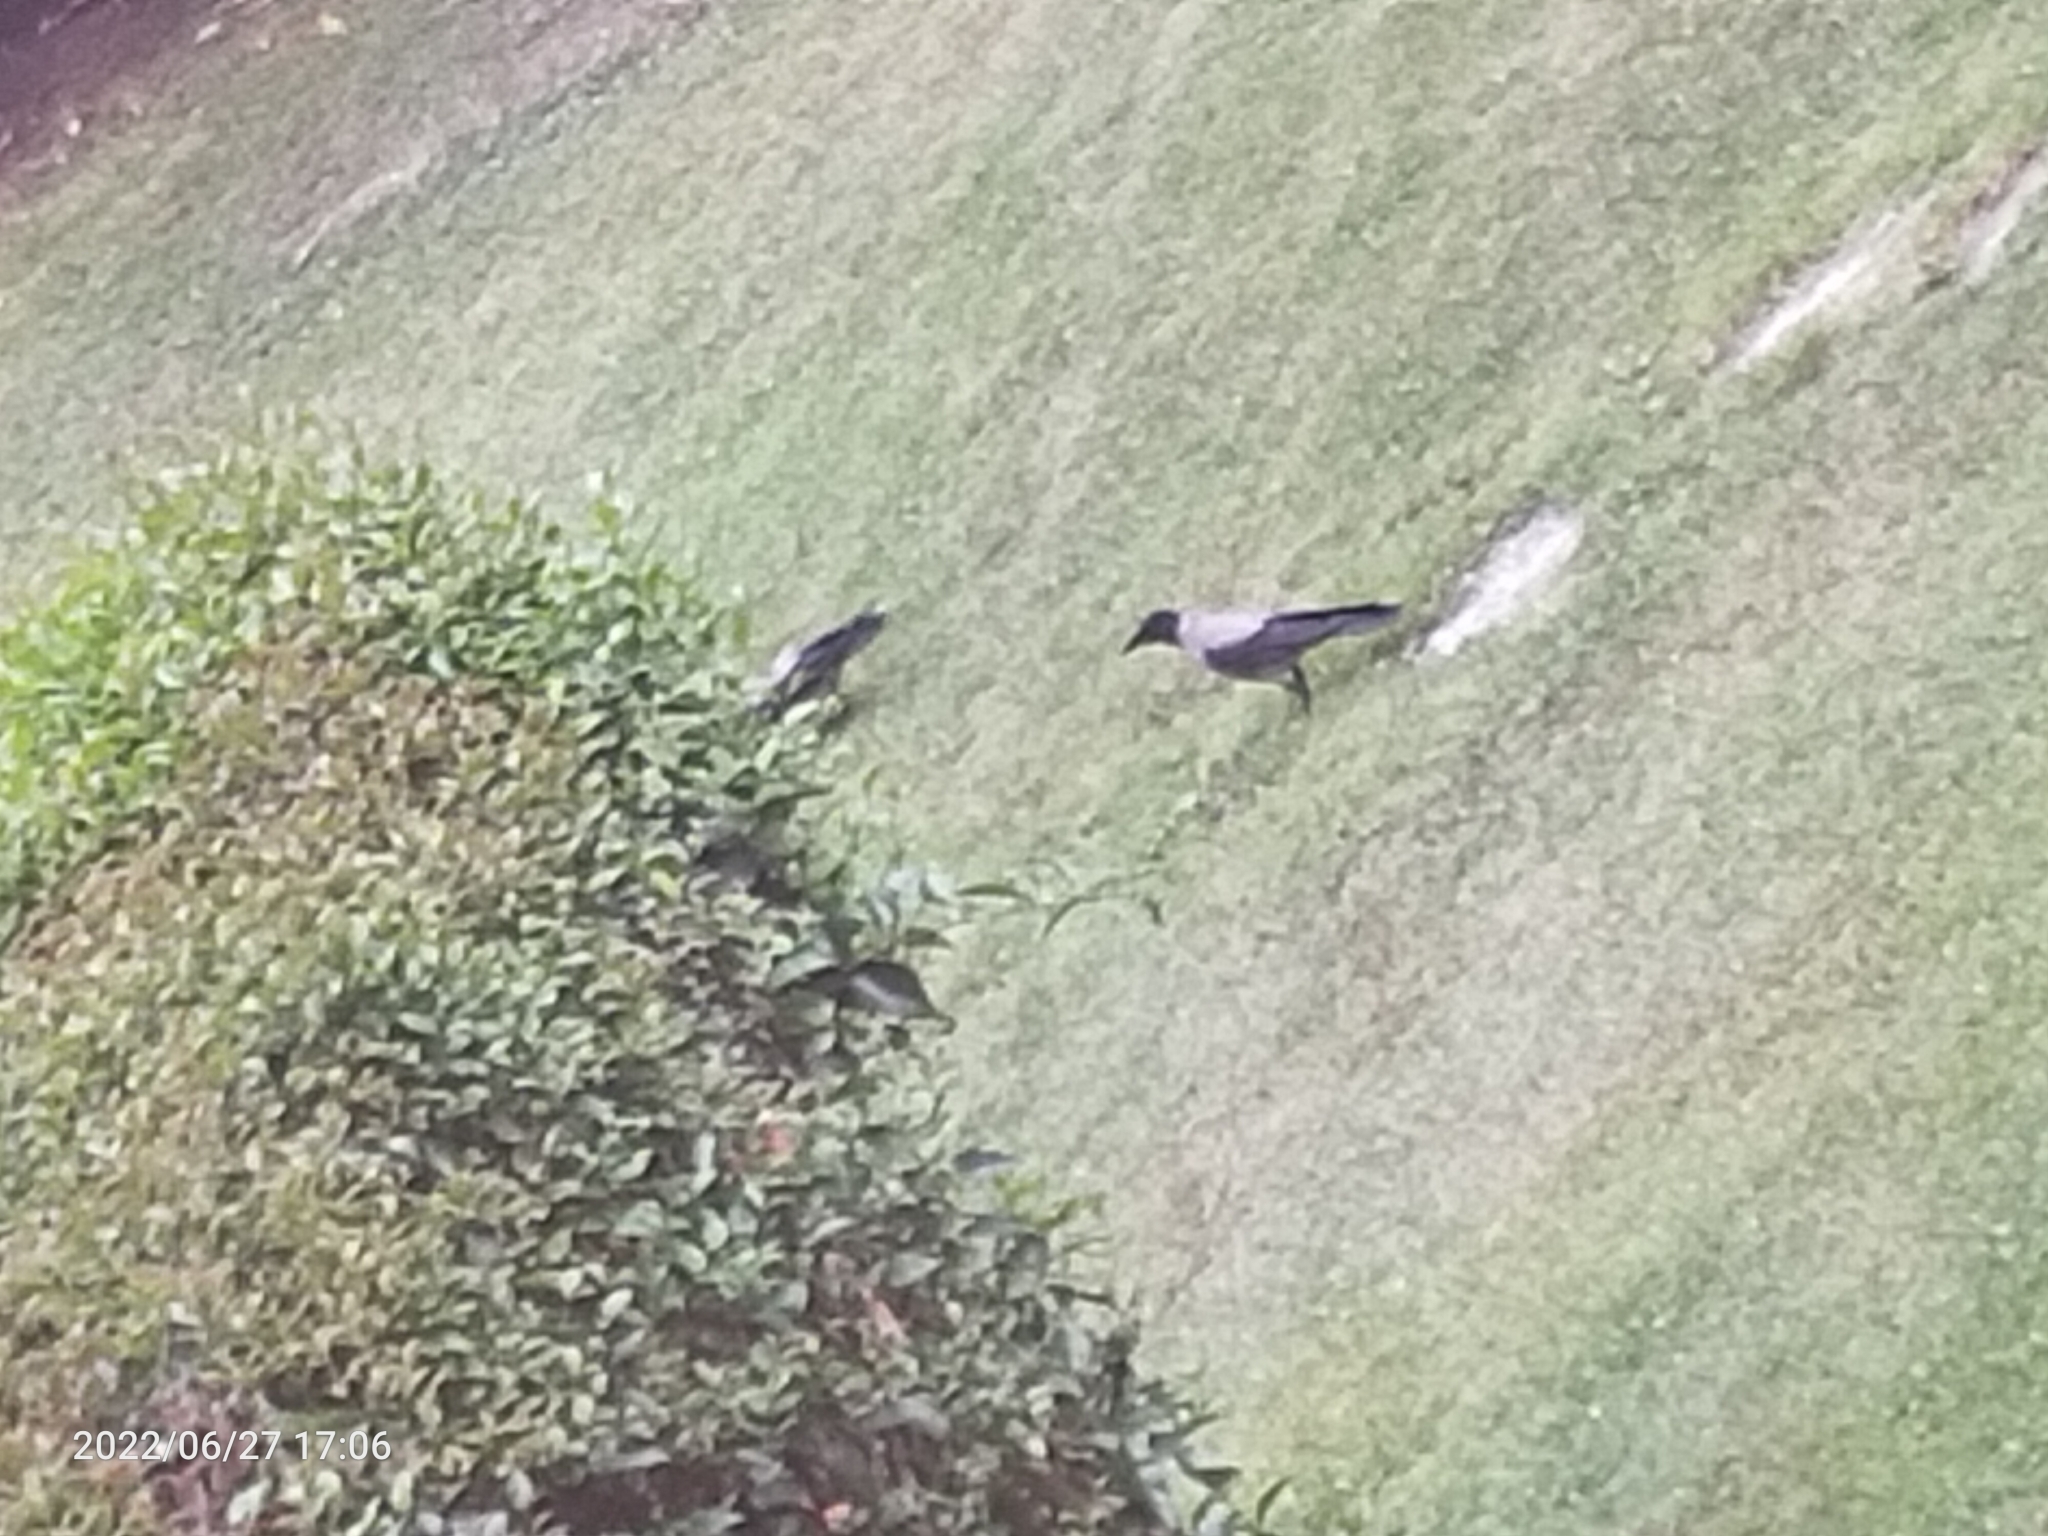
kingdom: Animalia
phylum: Chordata
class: Aves
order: Passeriformes
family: Corvidae
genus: Corvus
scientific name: Corvus cornix
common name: Hooded crow
